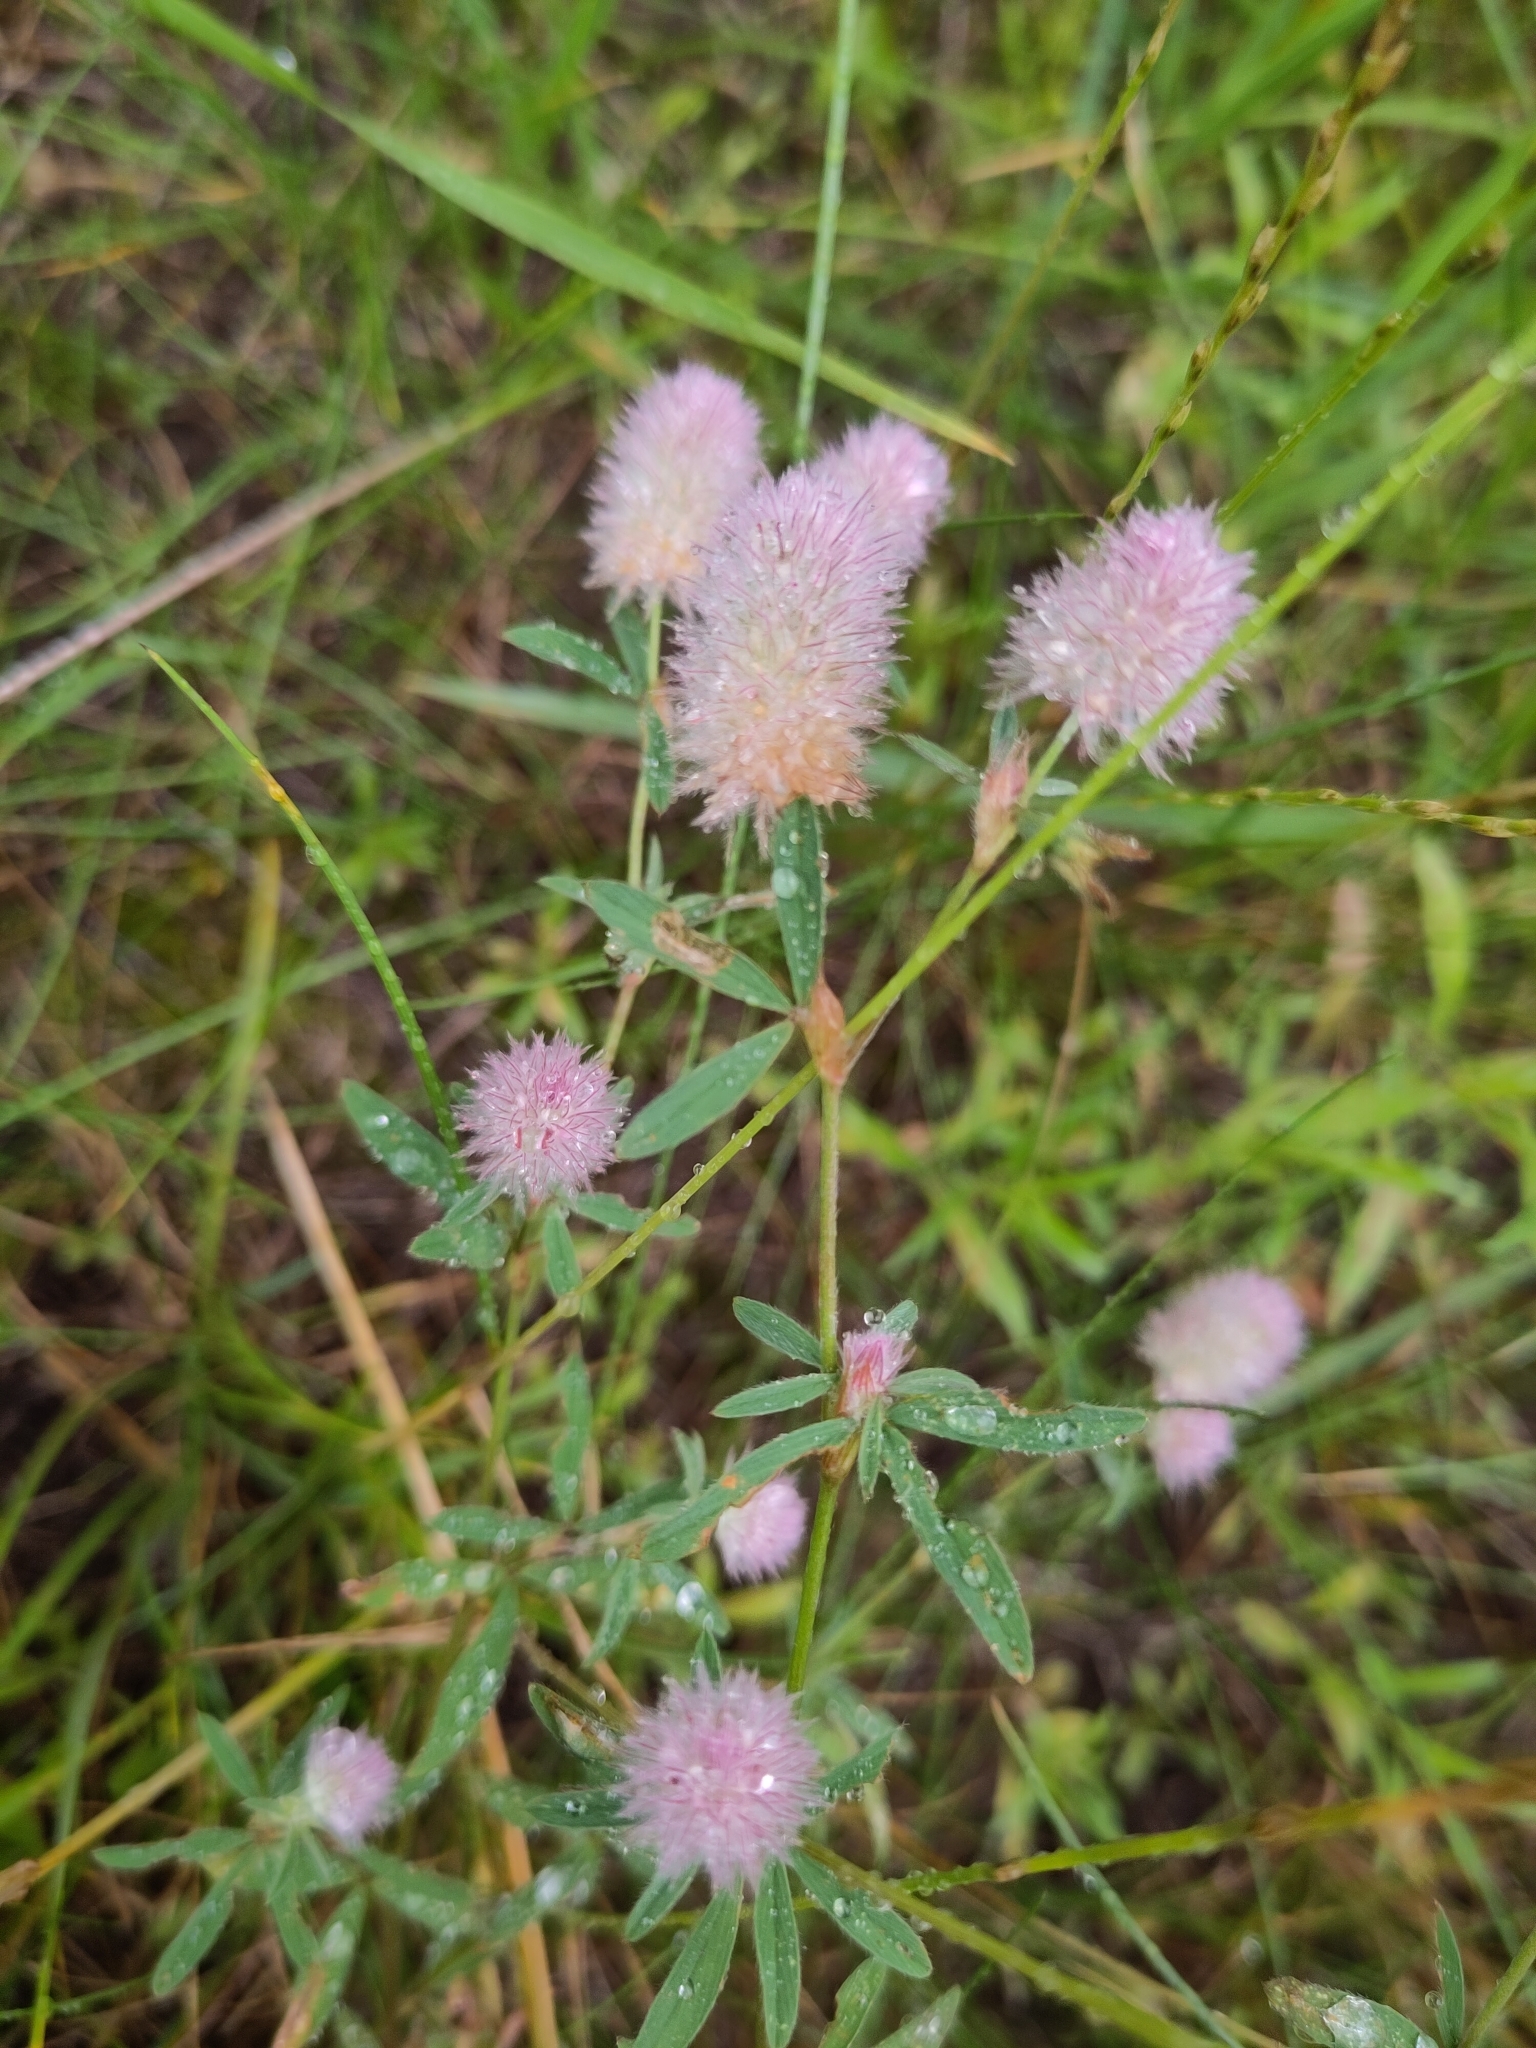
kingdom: Plantae
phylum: Tracheophyta
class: Magnoliopsida
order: Fabales
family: Fabaceae
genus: Trifolium
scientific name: Trifolium arvense
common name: Hare's-foot clover
